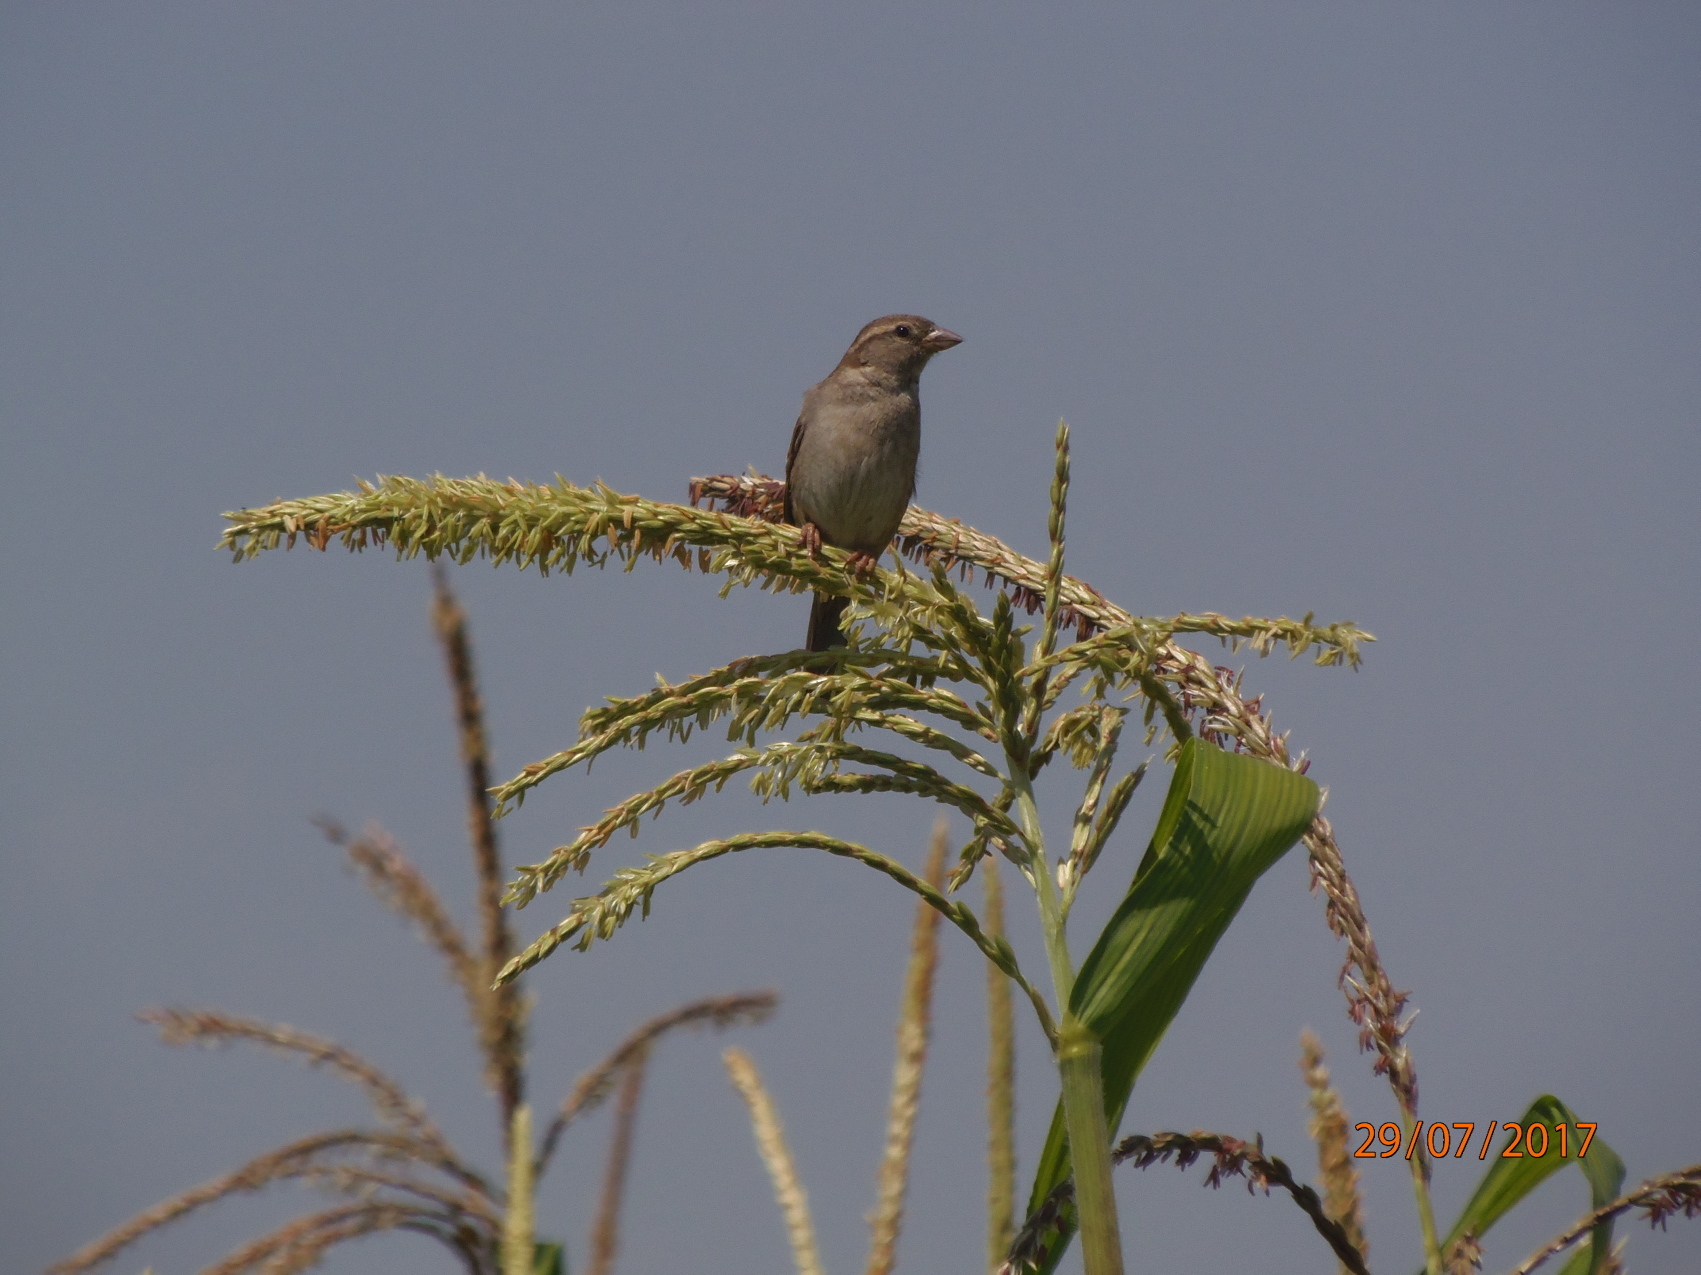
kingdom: Animalia
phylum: Chordata
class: Aves
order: Passeriformes
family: Passeridae
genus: Passer
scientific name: Passer domesticus
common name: House sparrow
